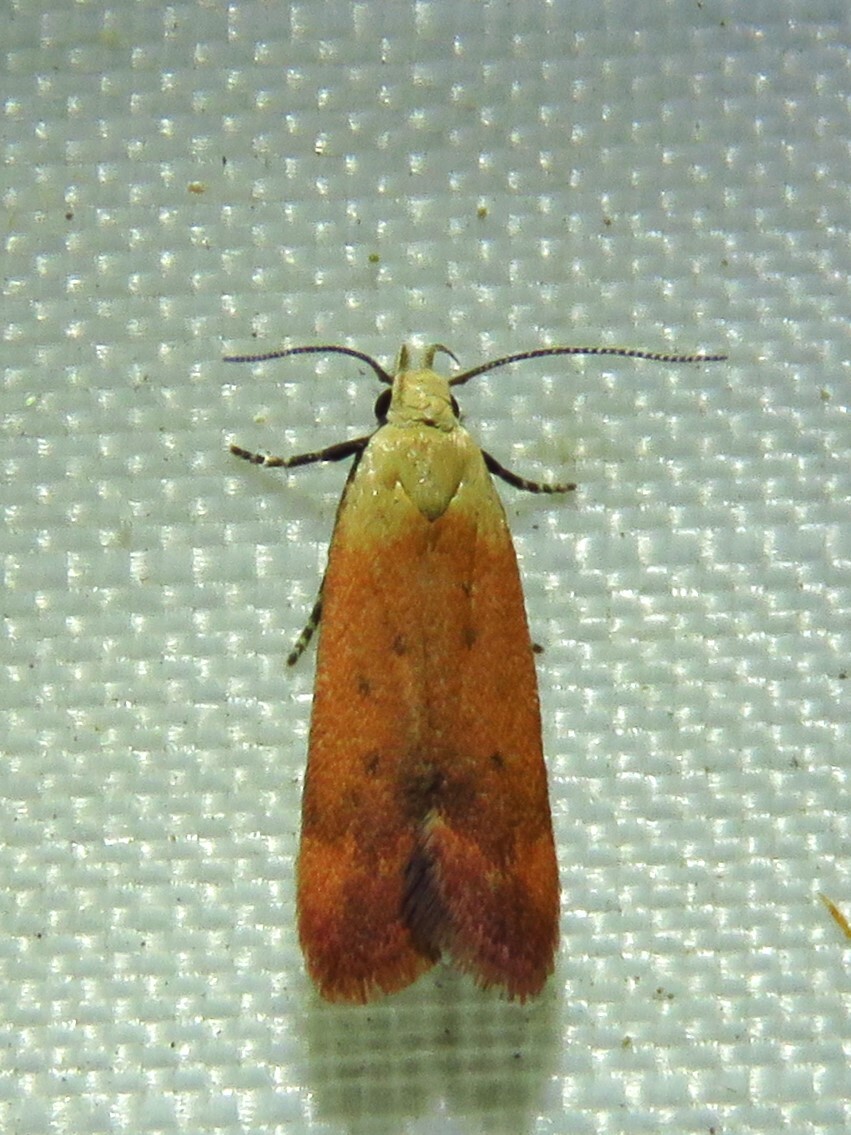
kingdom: Animalia
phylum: Arthropoda
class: Insecta
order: Lepidoptera
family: Gelechiidae
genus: Anacampsis
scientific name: Anacampsis fullonella
